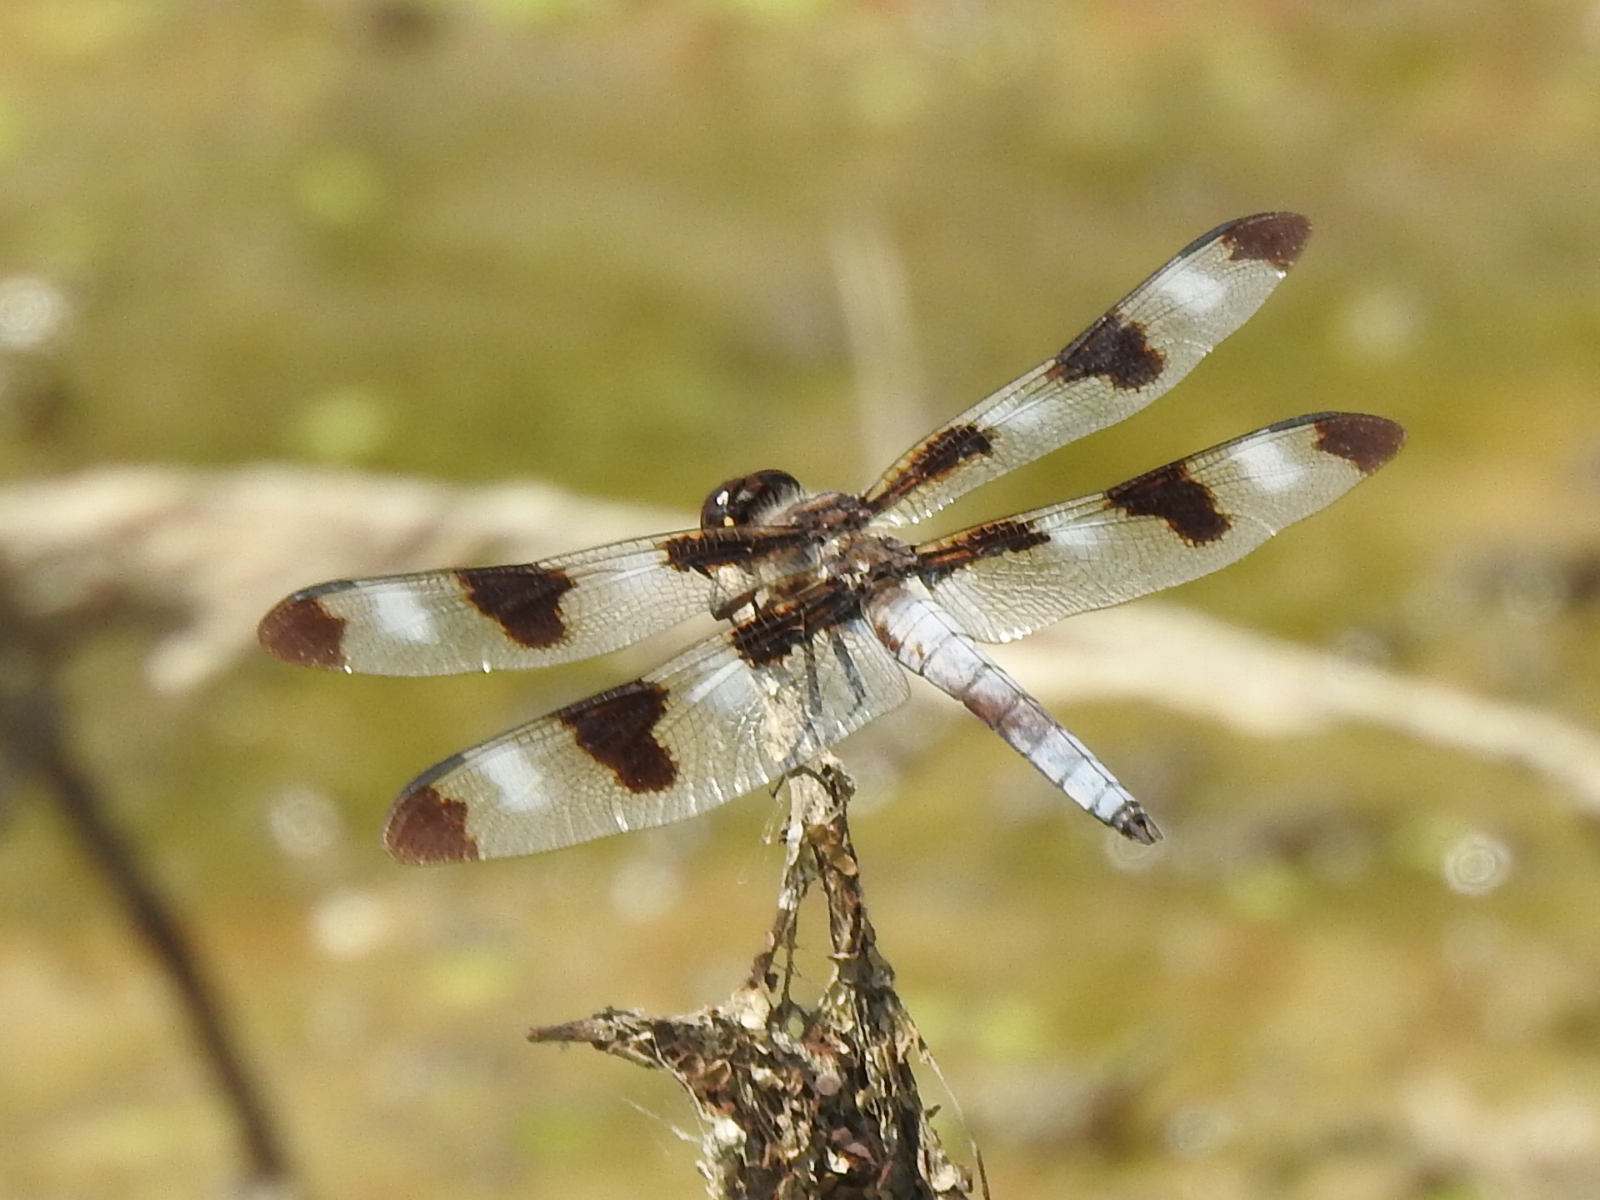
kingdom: Animalia
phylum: Arthropoda
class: Insecta
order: Odonata
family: Libellulidae
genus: Libellula
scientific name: Libellula pulchella
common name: Twelve-spotted skimmer
